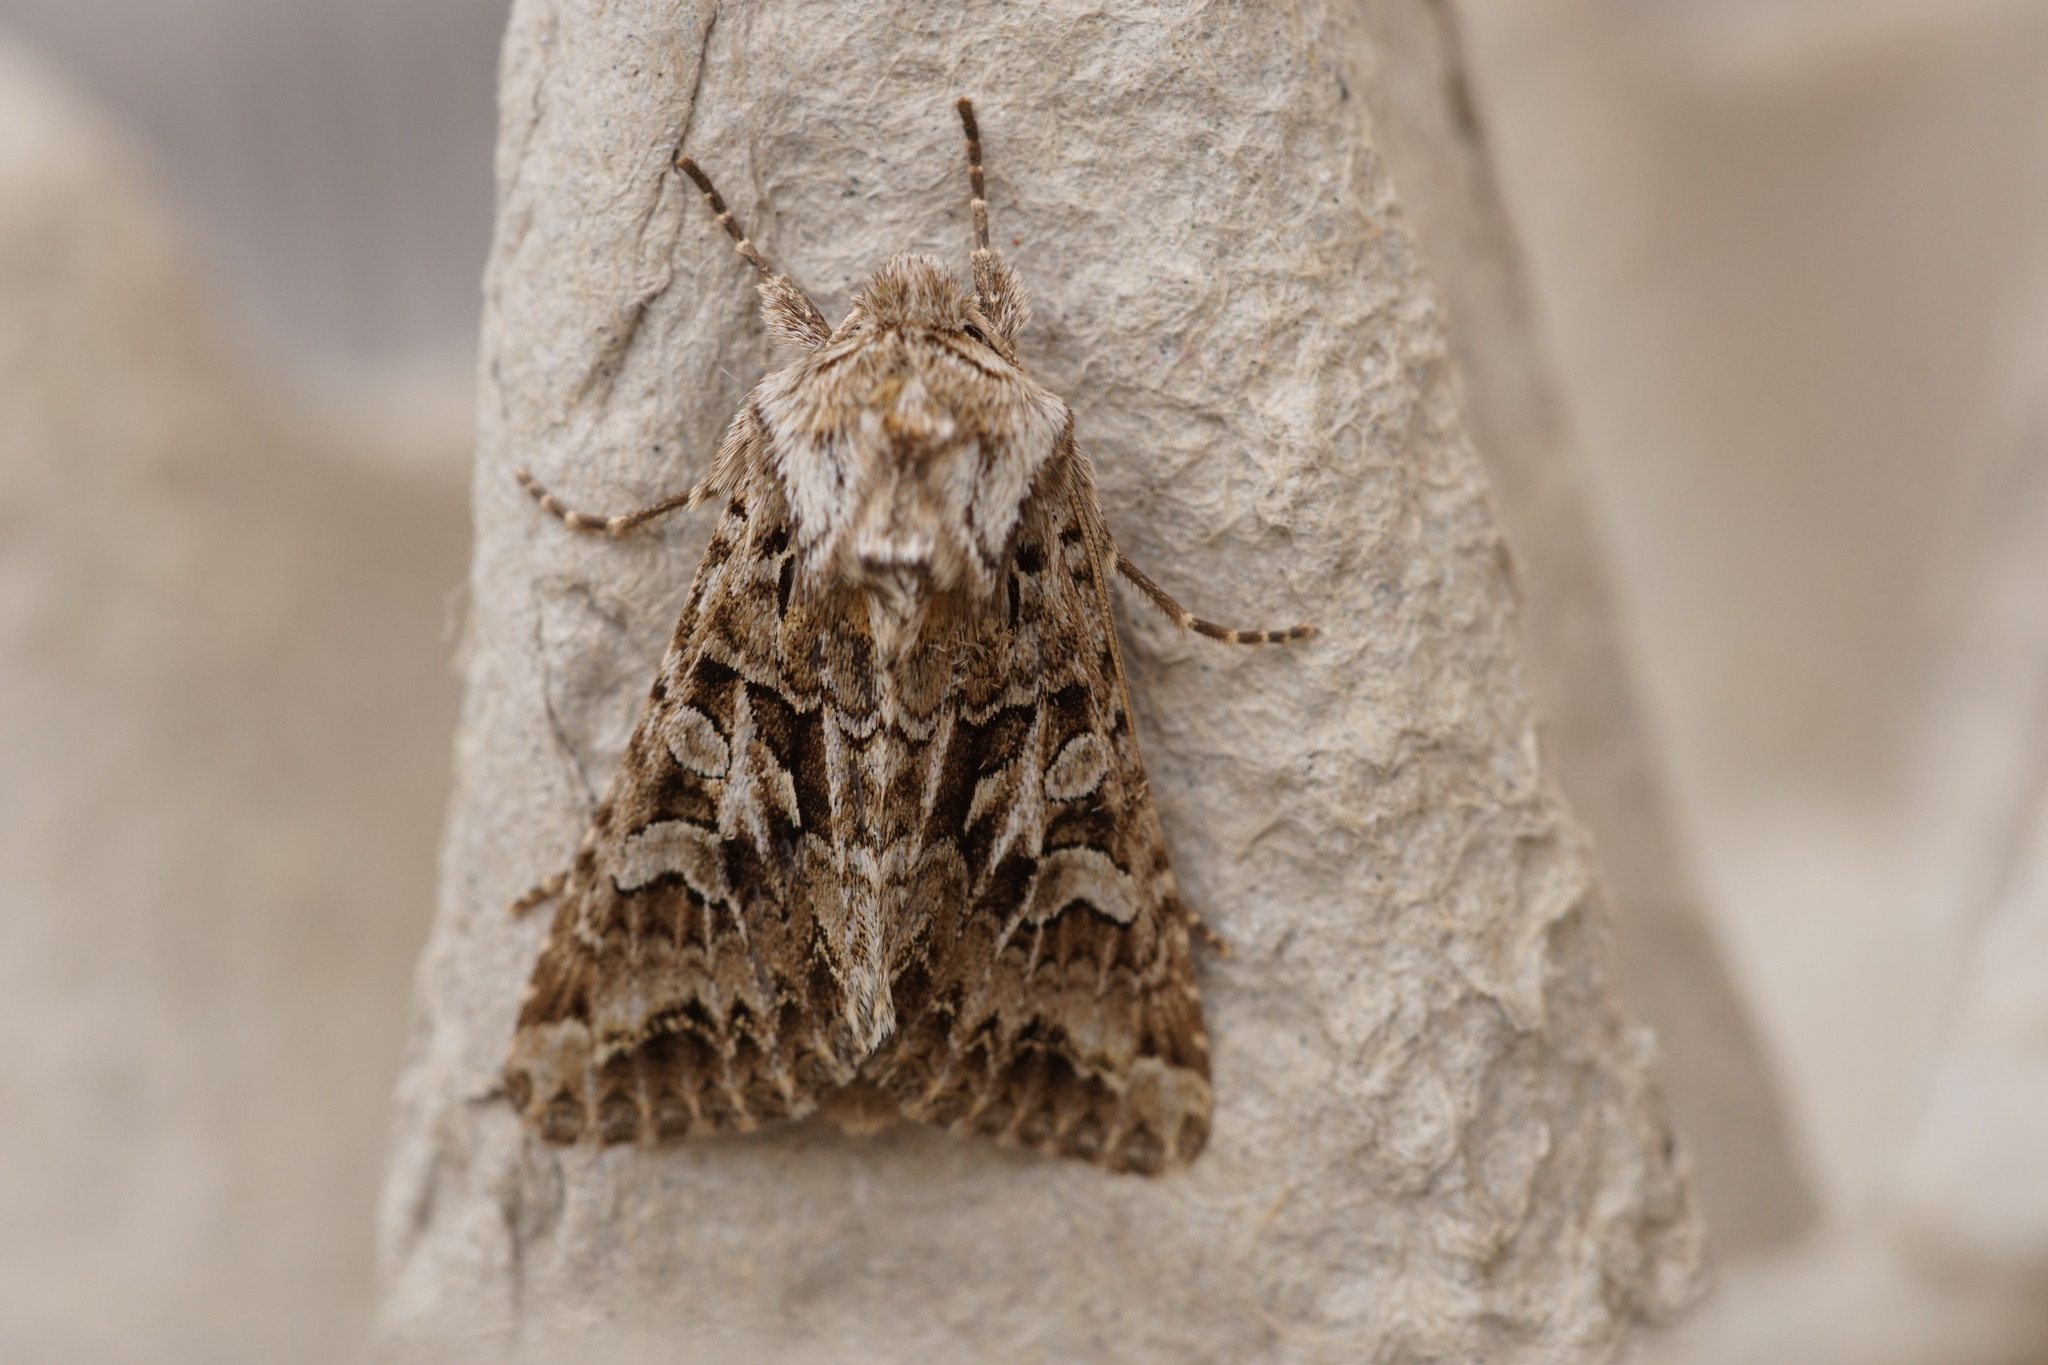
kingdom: Animalia
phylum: Arthropoda
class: Insecta
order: Lepidoptera
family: Noctuidae
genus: Hada
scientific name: Hada plebeja
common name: Shears
